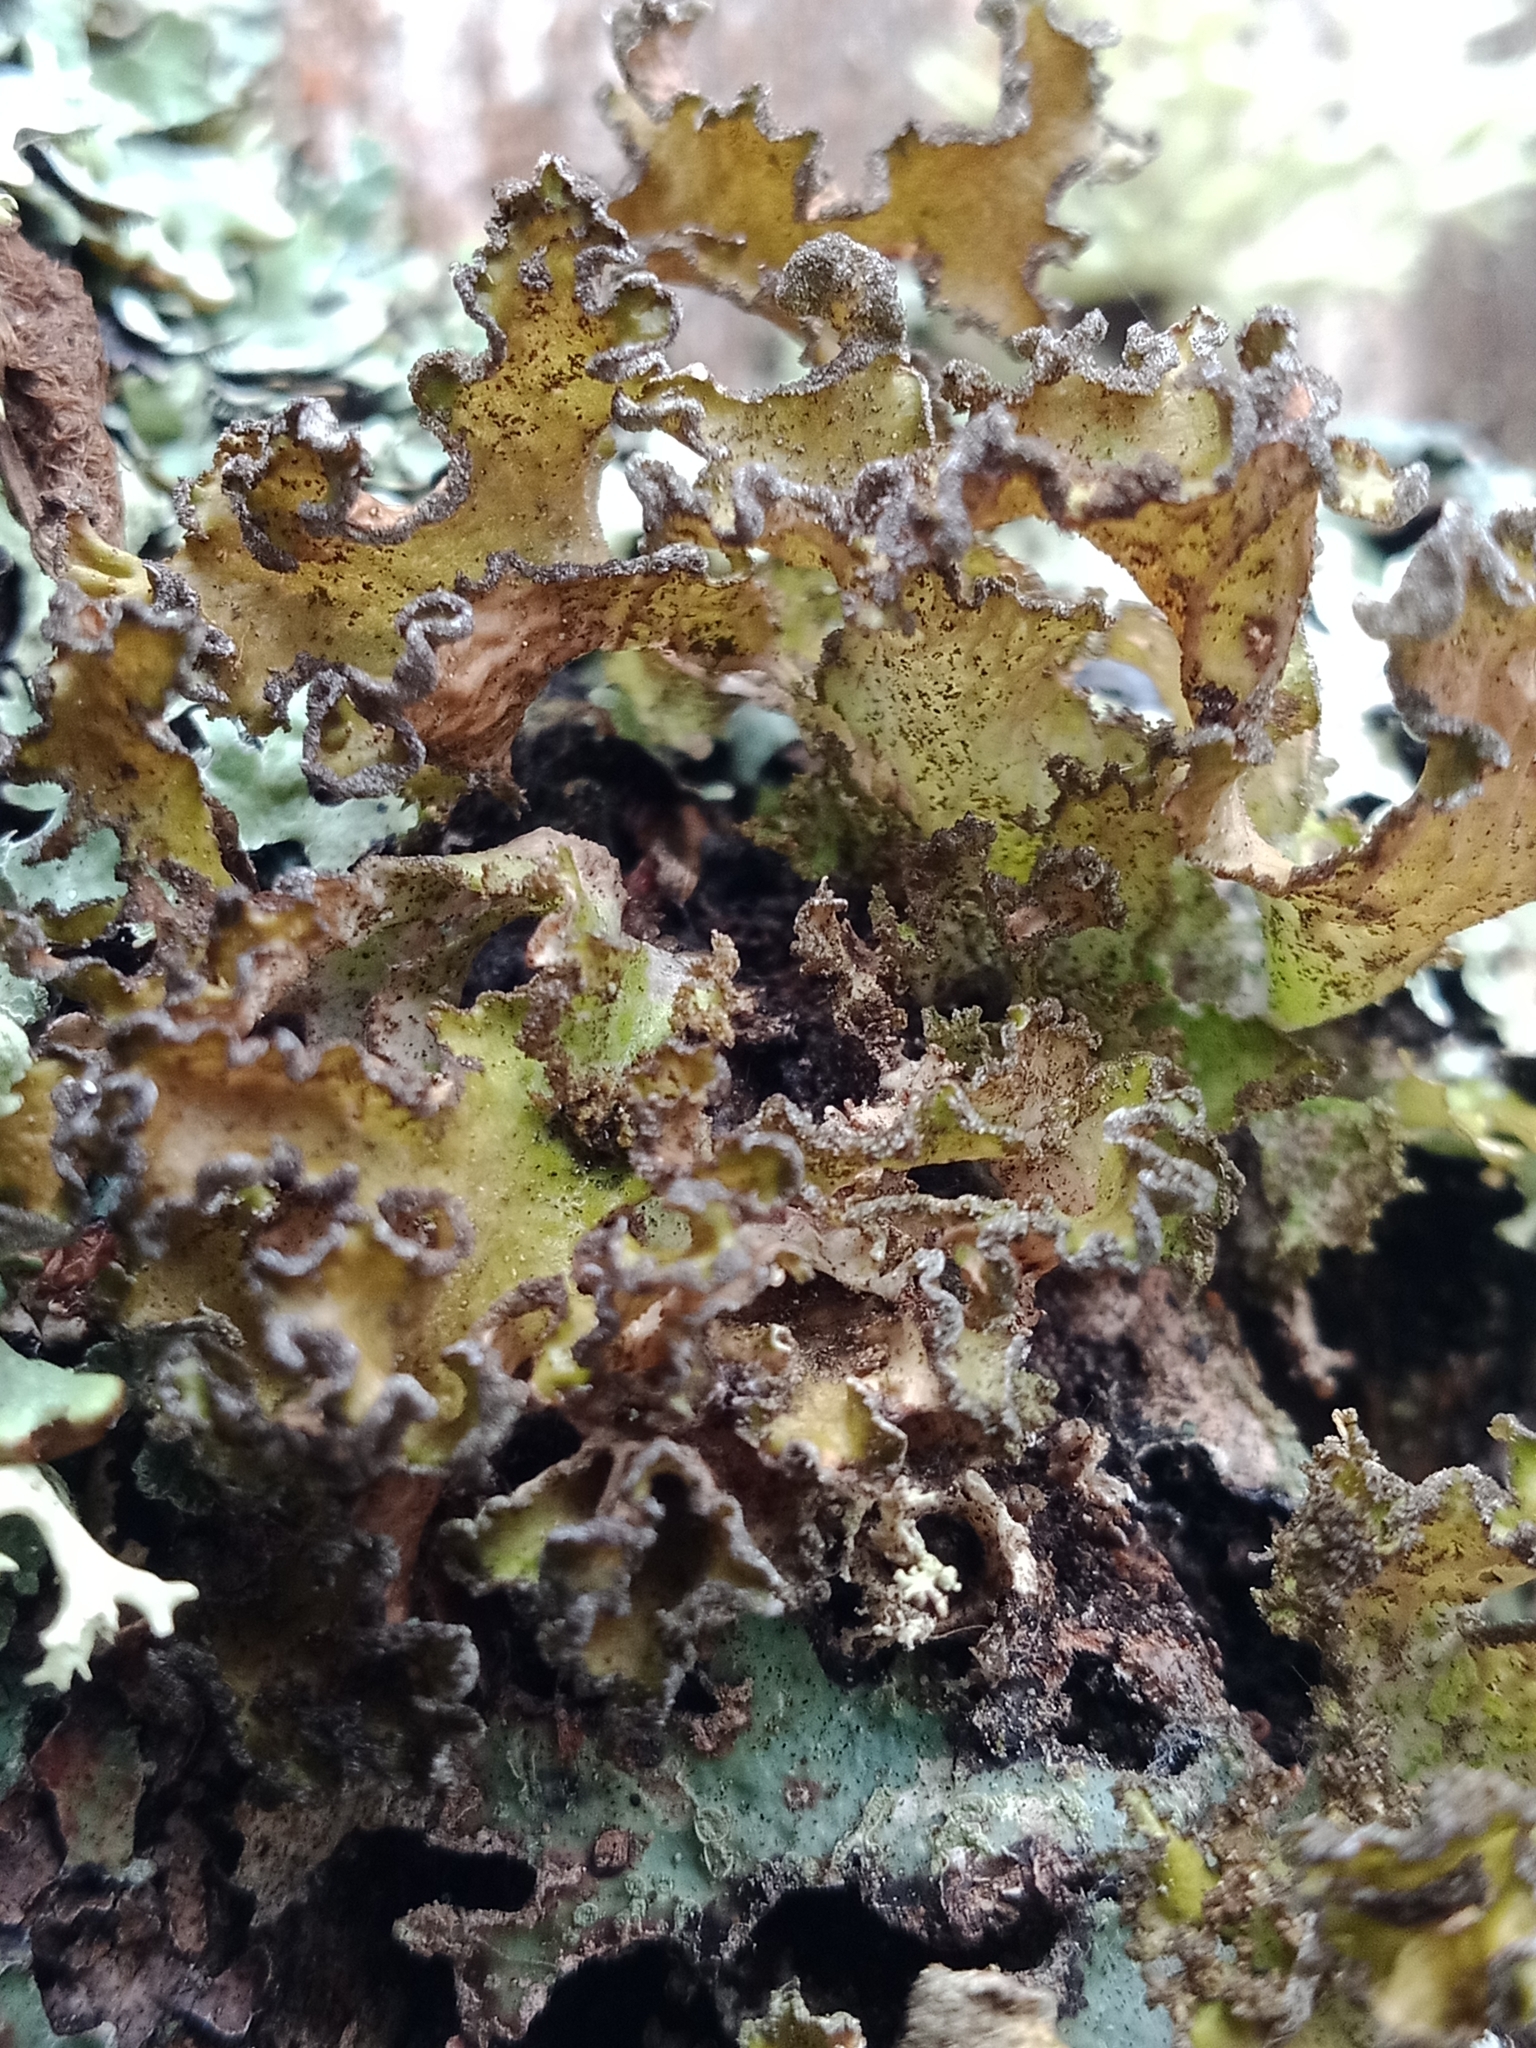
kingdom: Fungi
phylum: Ascomycota
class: Lecanoromycetes
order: Lecanorales
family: Parmeliaceae
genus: Nephromopsis
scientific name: Nephromopsis chlorophylla
